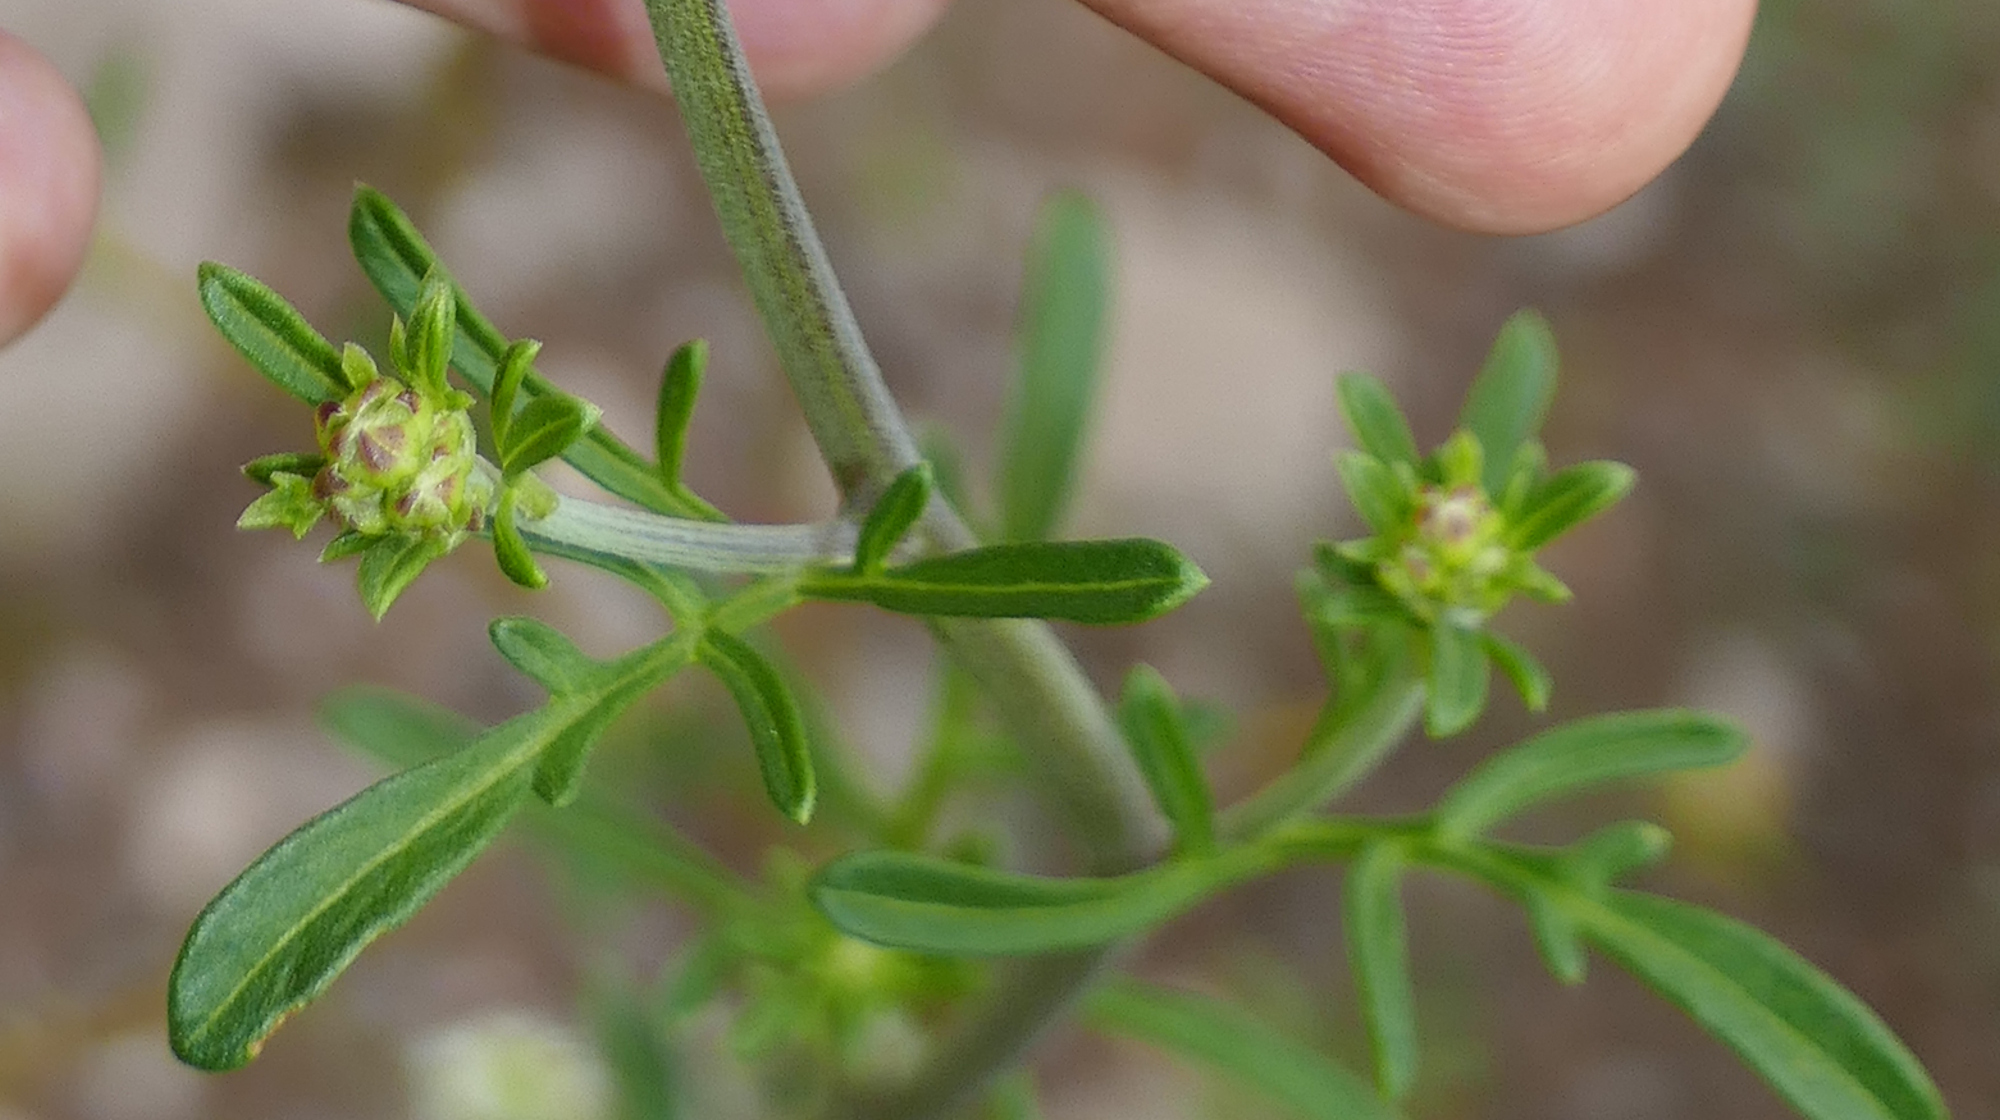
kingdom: Plantae
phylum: Tracheophyta
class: Magnoliopsida
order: Asterales
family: Asteraceae
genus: Hymenothrix
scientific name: Hymenothrix dissecta
